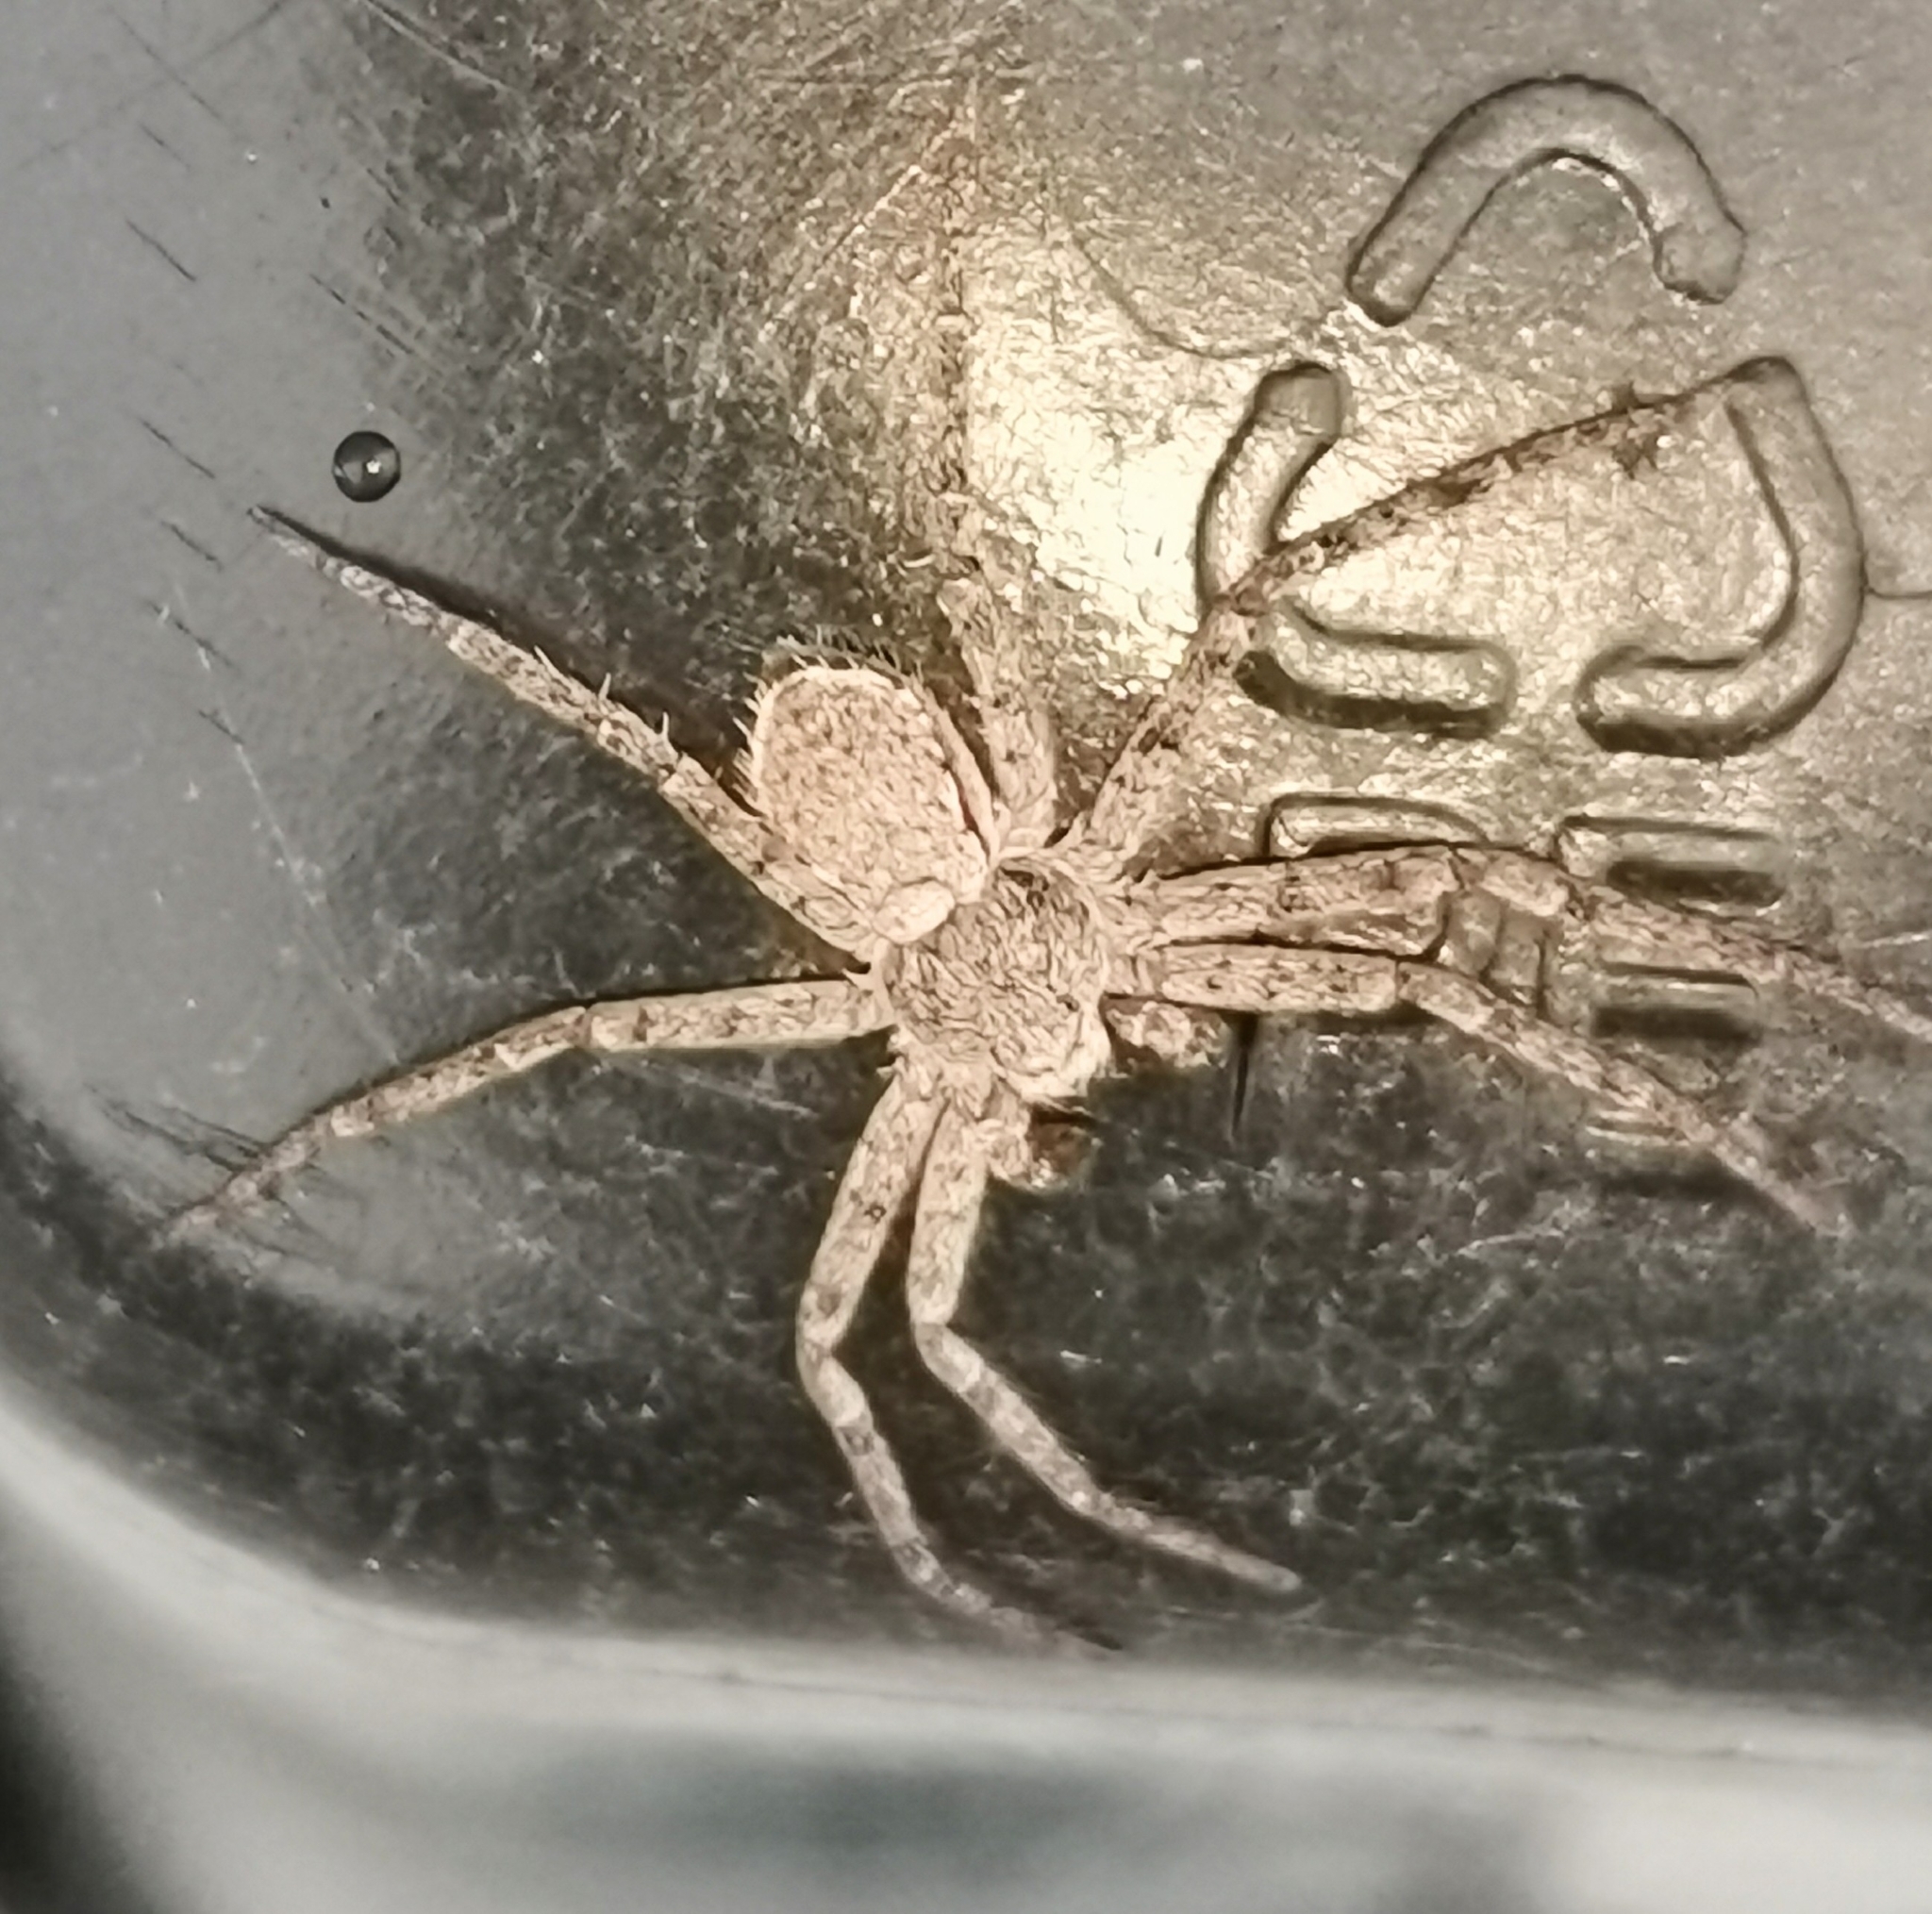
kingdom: Animalia
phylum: Arthropoda
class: Arachnida
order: Araneae
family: Philodromidae
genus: Philodromus
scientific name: Philodromus fuscomarginatus
